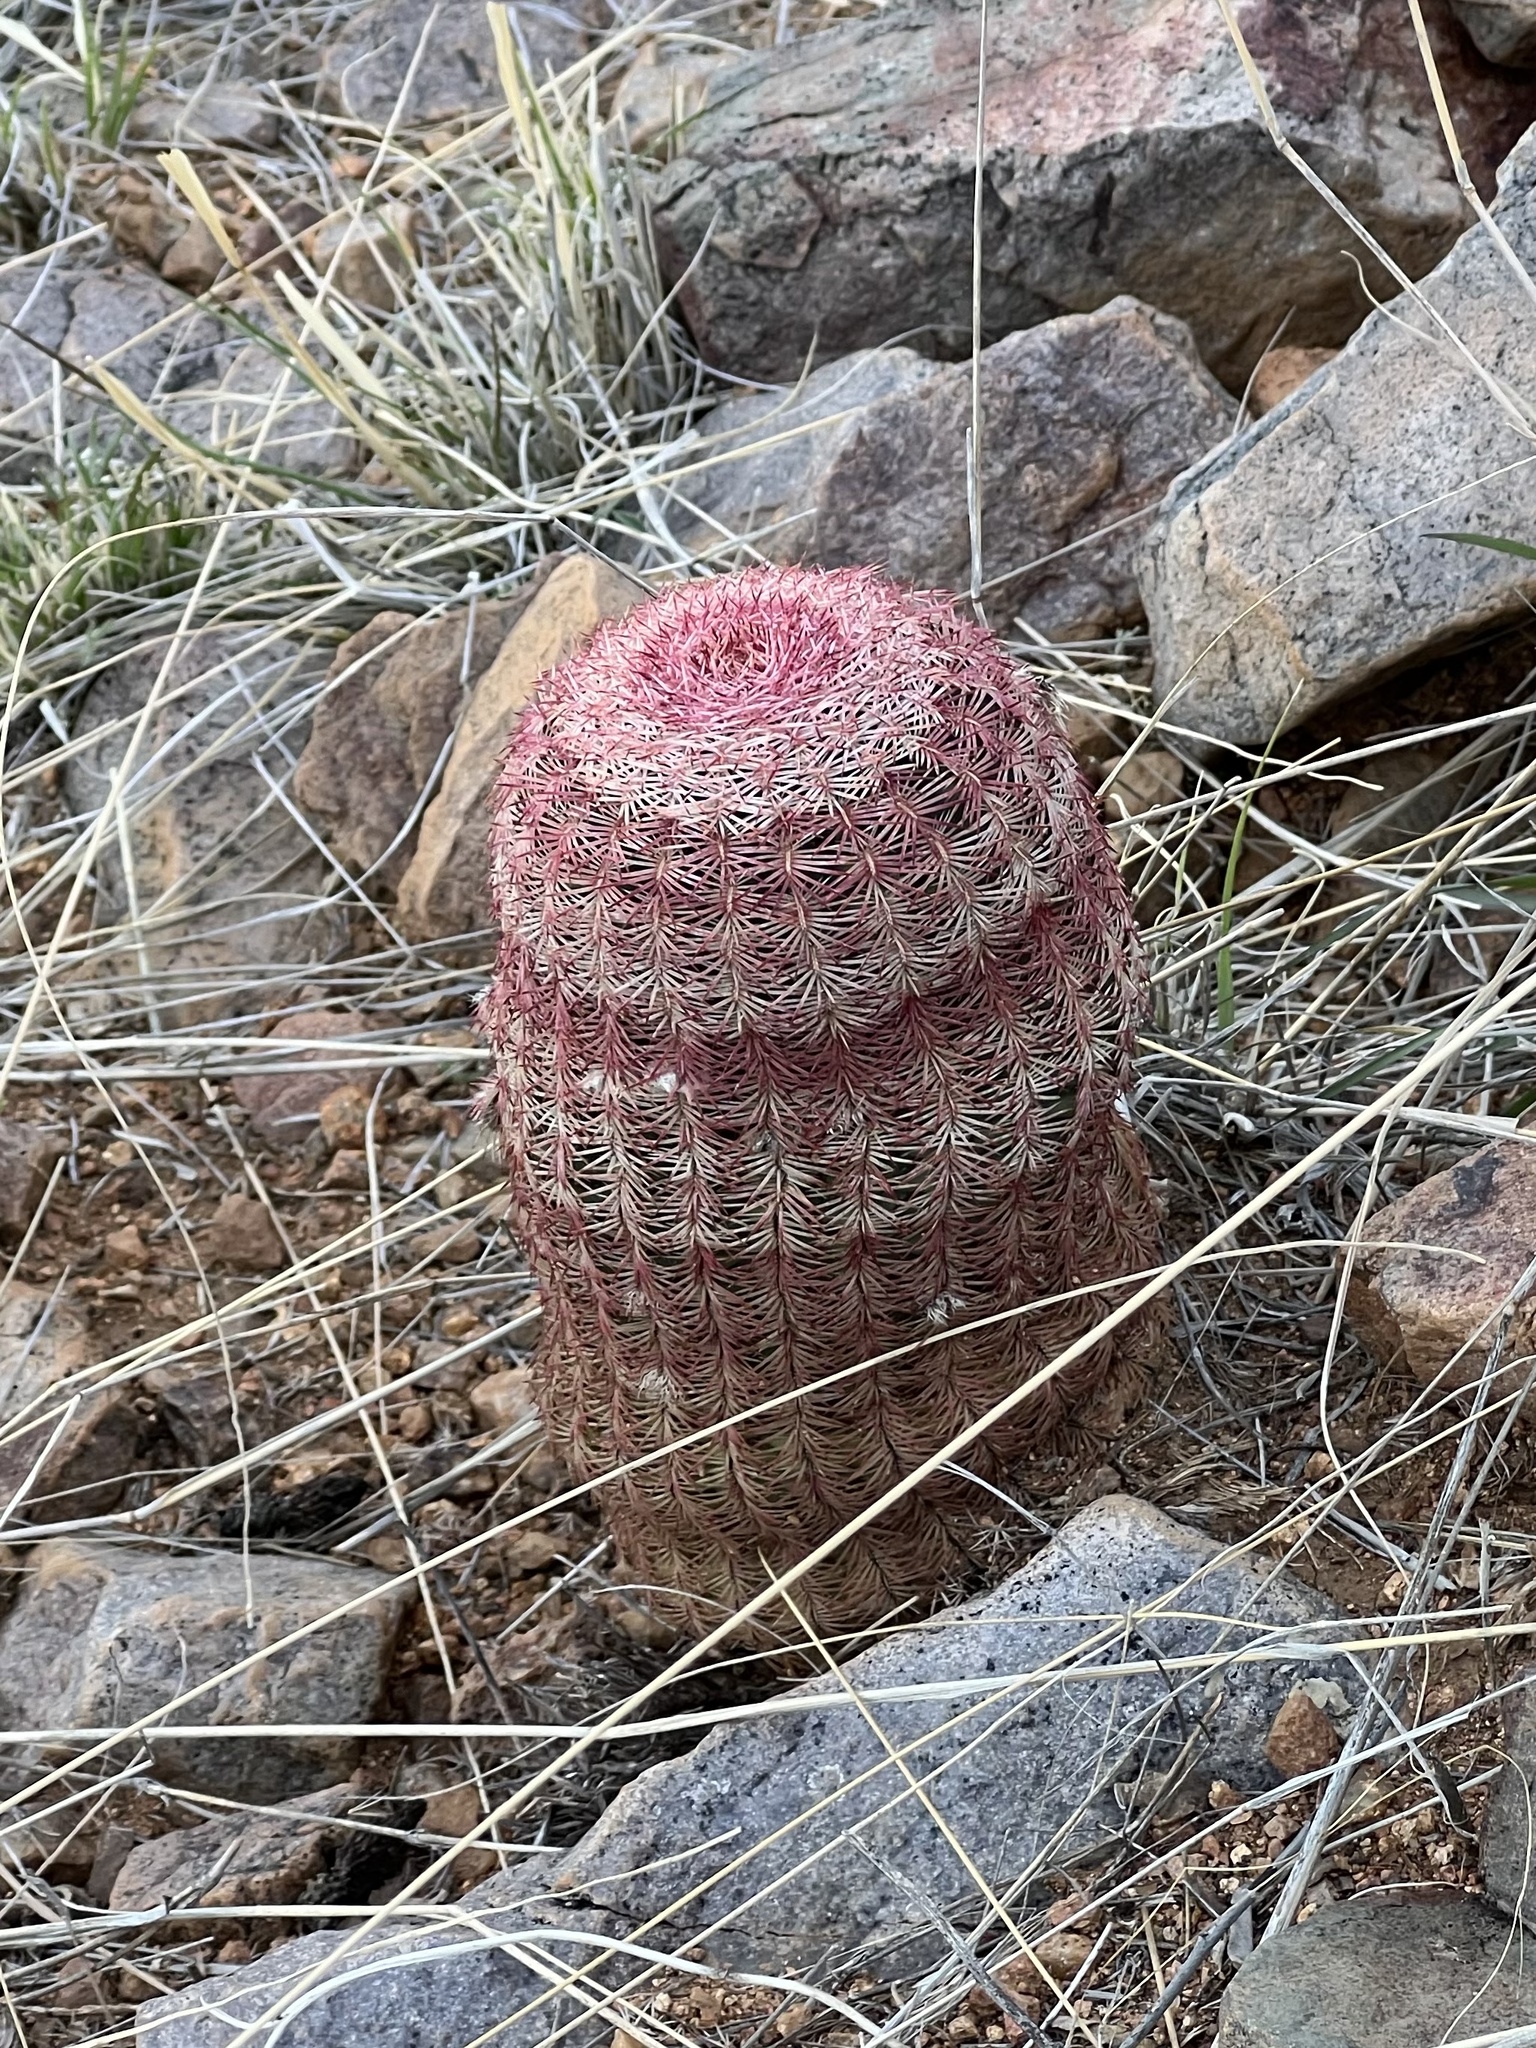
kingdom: Plantae
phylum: Tracheophyta
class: Magnoliopsida
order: Caryophyllales
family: Cactaceae
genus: Echinocereus
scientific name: Echinocereus rigidissimus
